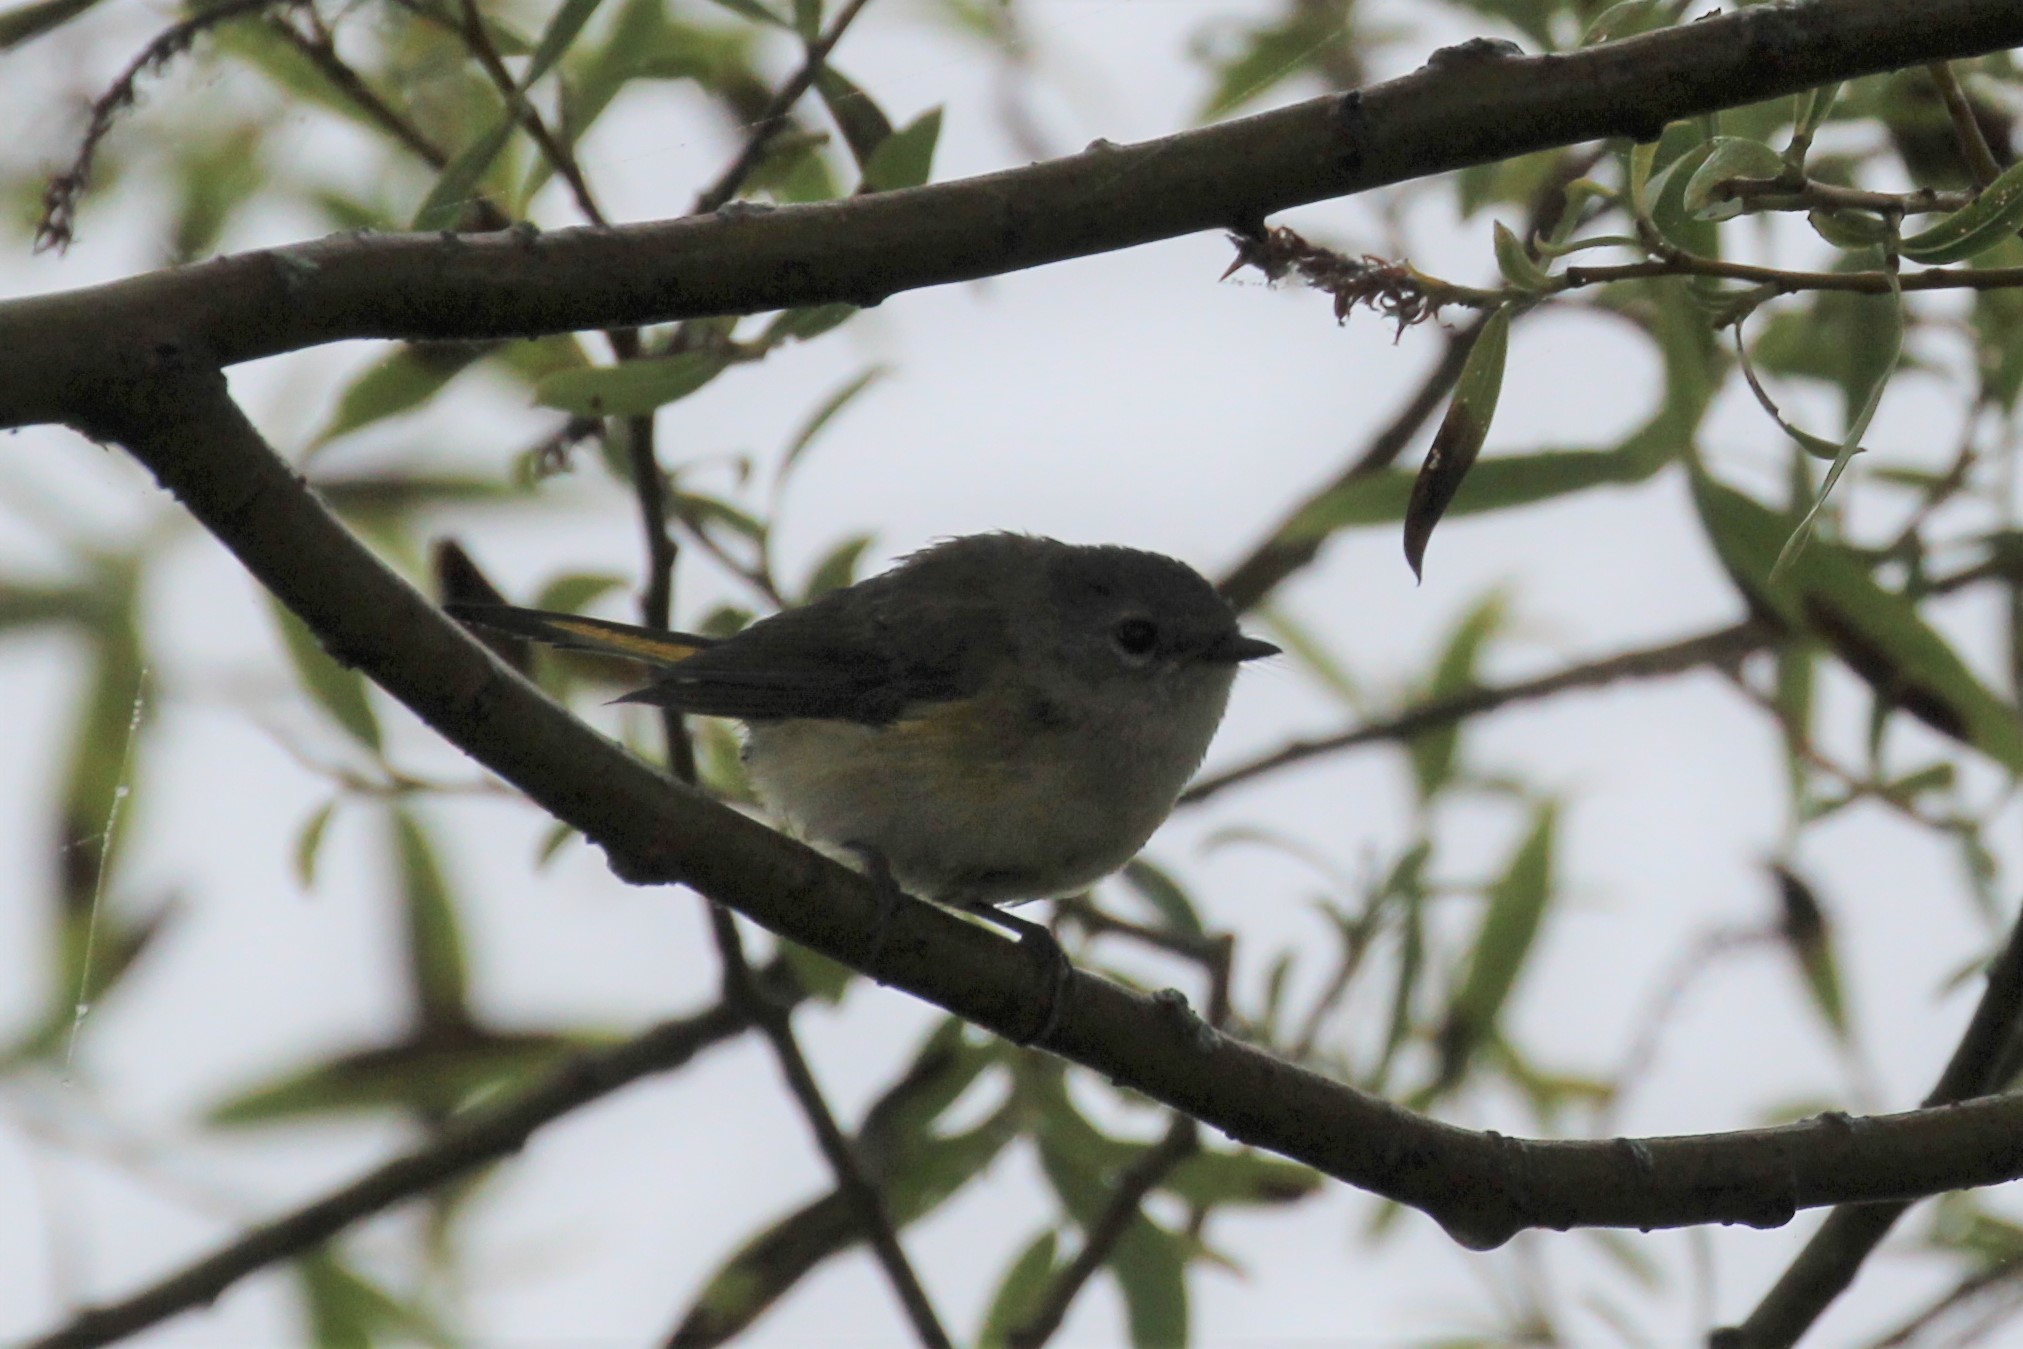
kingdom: Animalia
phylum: Chordata
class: Aves
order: Passeriformes
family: Parulidae
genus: Setophaga
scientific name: Setophaga ruticilla
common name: American redstart
